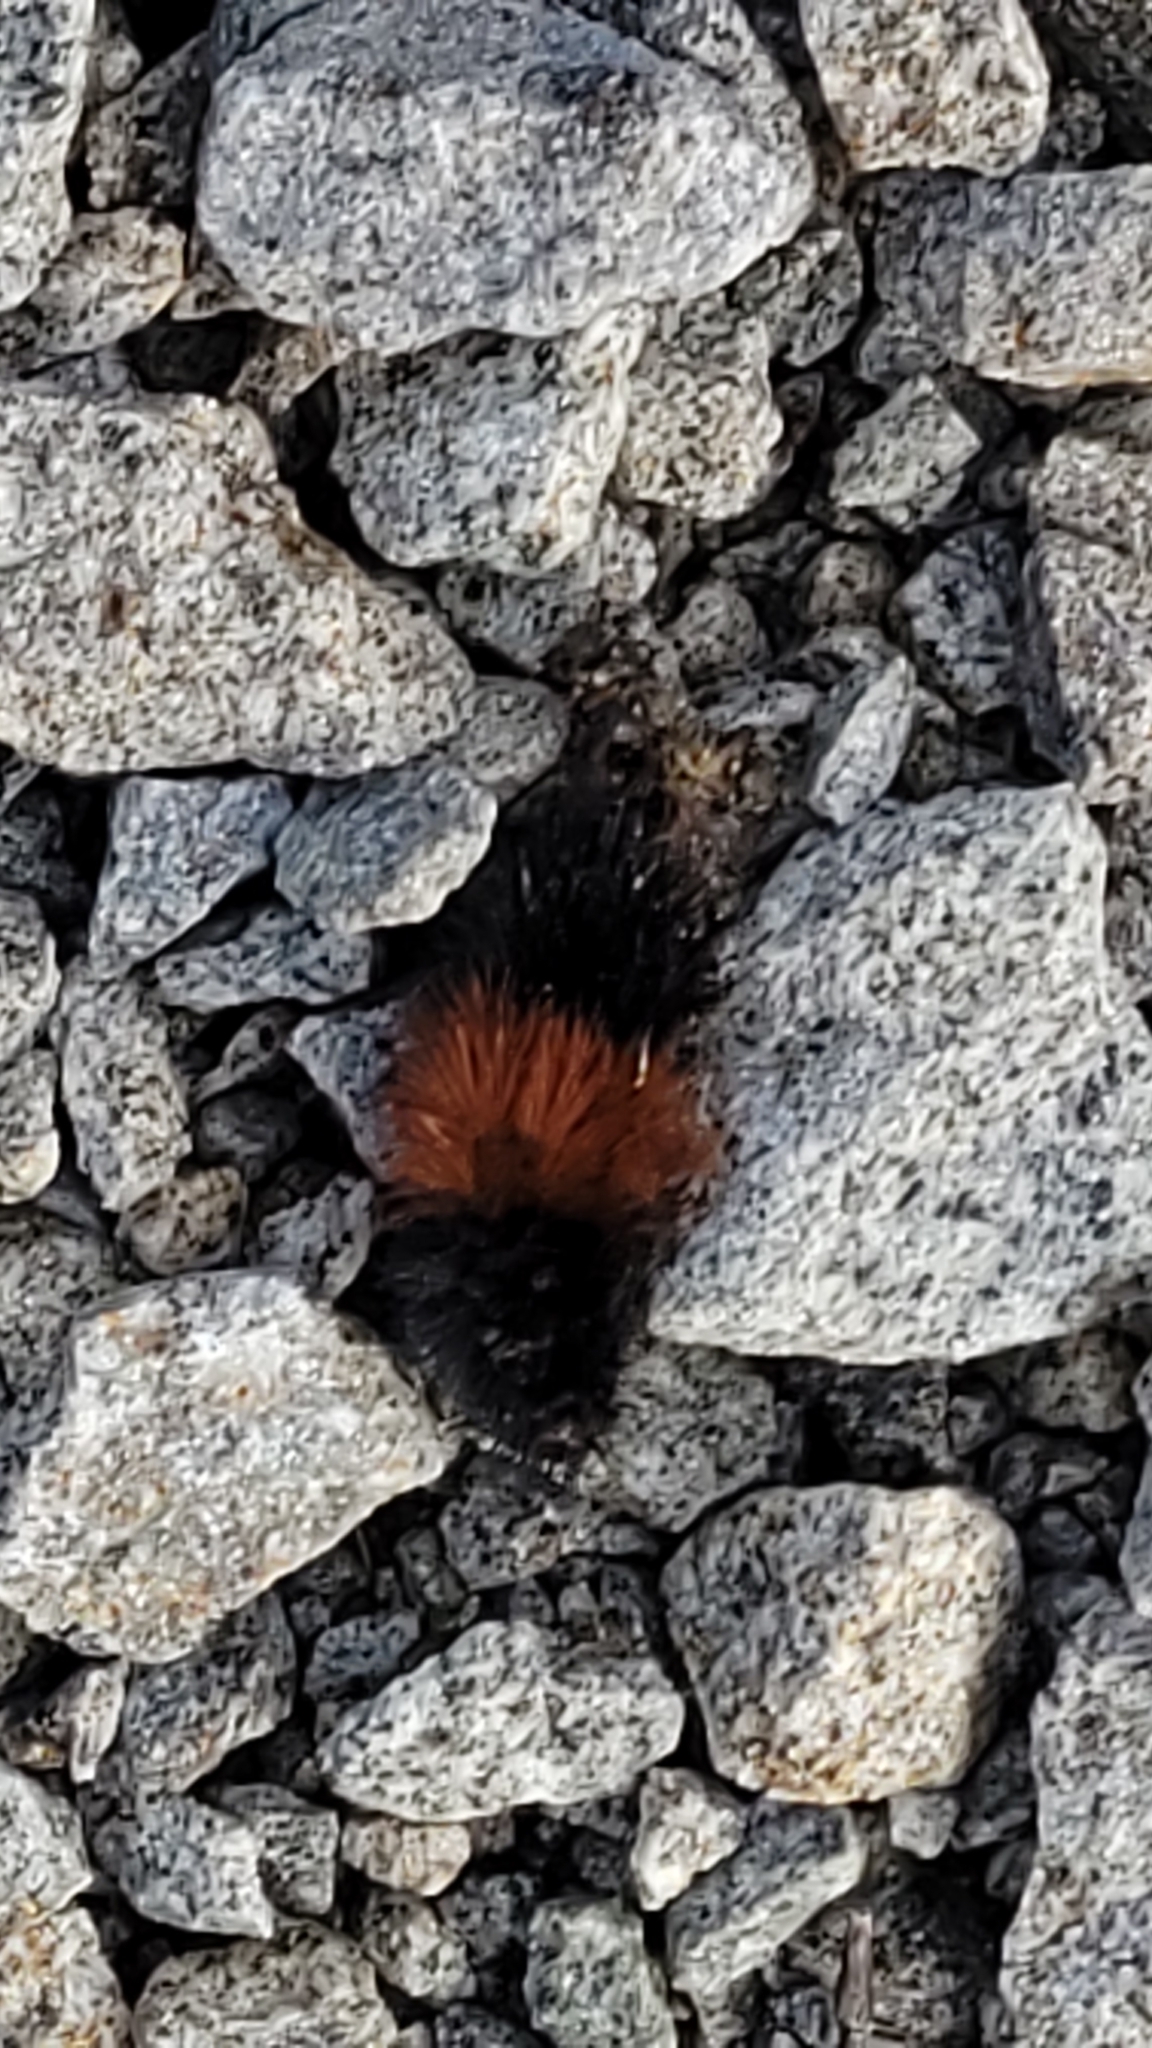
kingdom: Animalia
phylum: Arthropoda
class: Insecta
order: Lepidoptera
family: Erebidae
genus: Pyrrharctia
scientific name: Pyrrharctia isabella
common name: Isabella tiger moth
